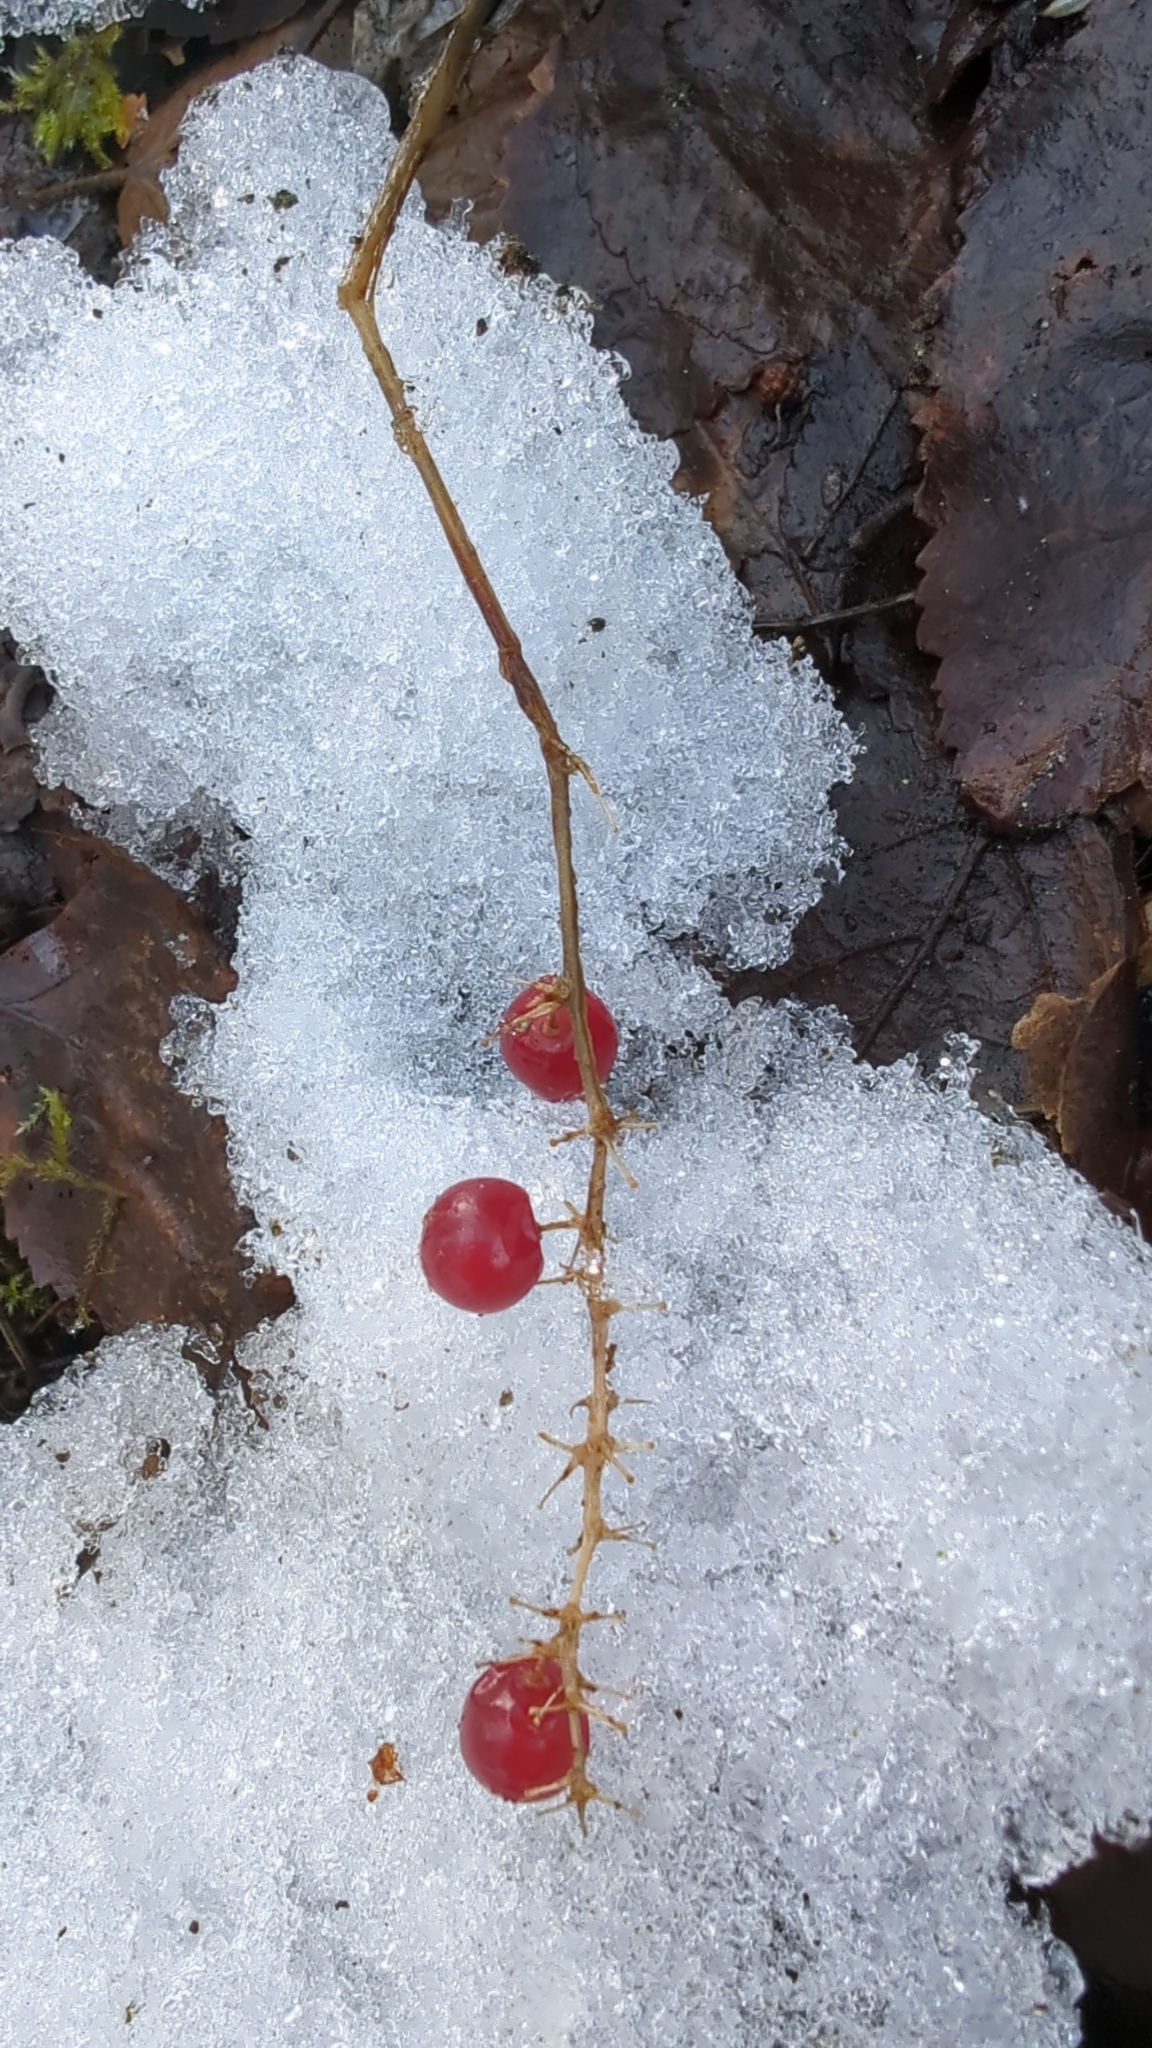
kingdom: Plantae
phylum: Tracheophyta
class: Liliopsida
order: Asparagales
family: Asparagaceae
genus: Maianthemum
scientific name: Maianthemum dilatatum
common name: False lily-of-the-valley
